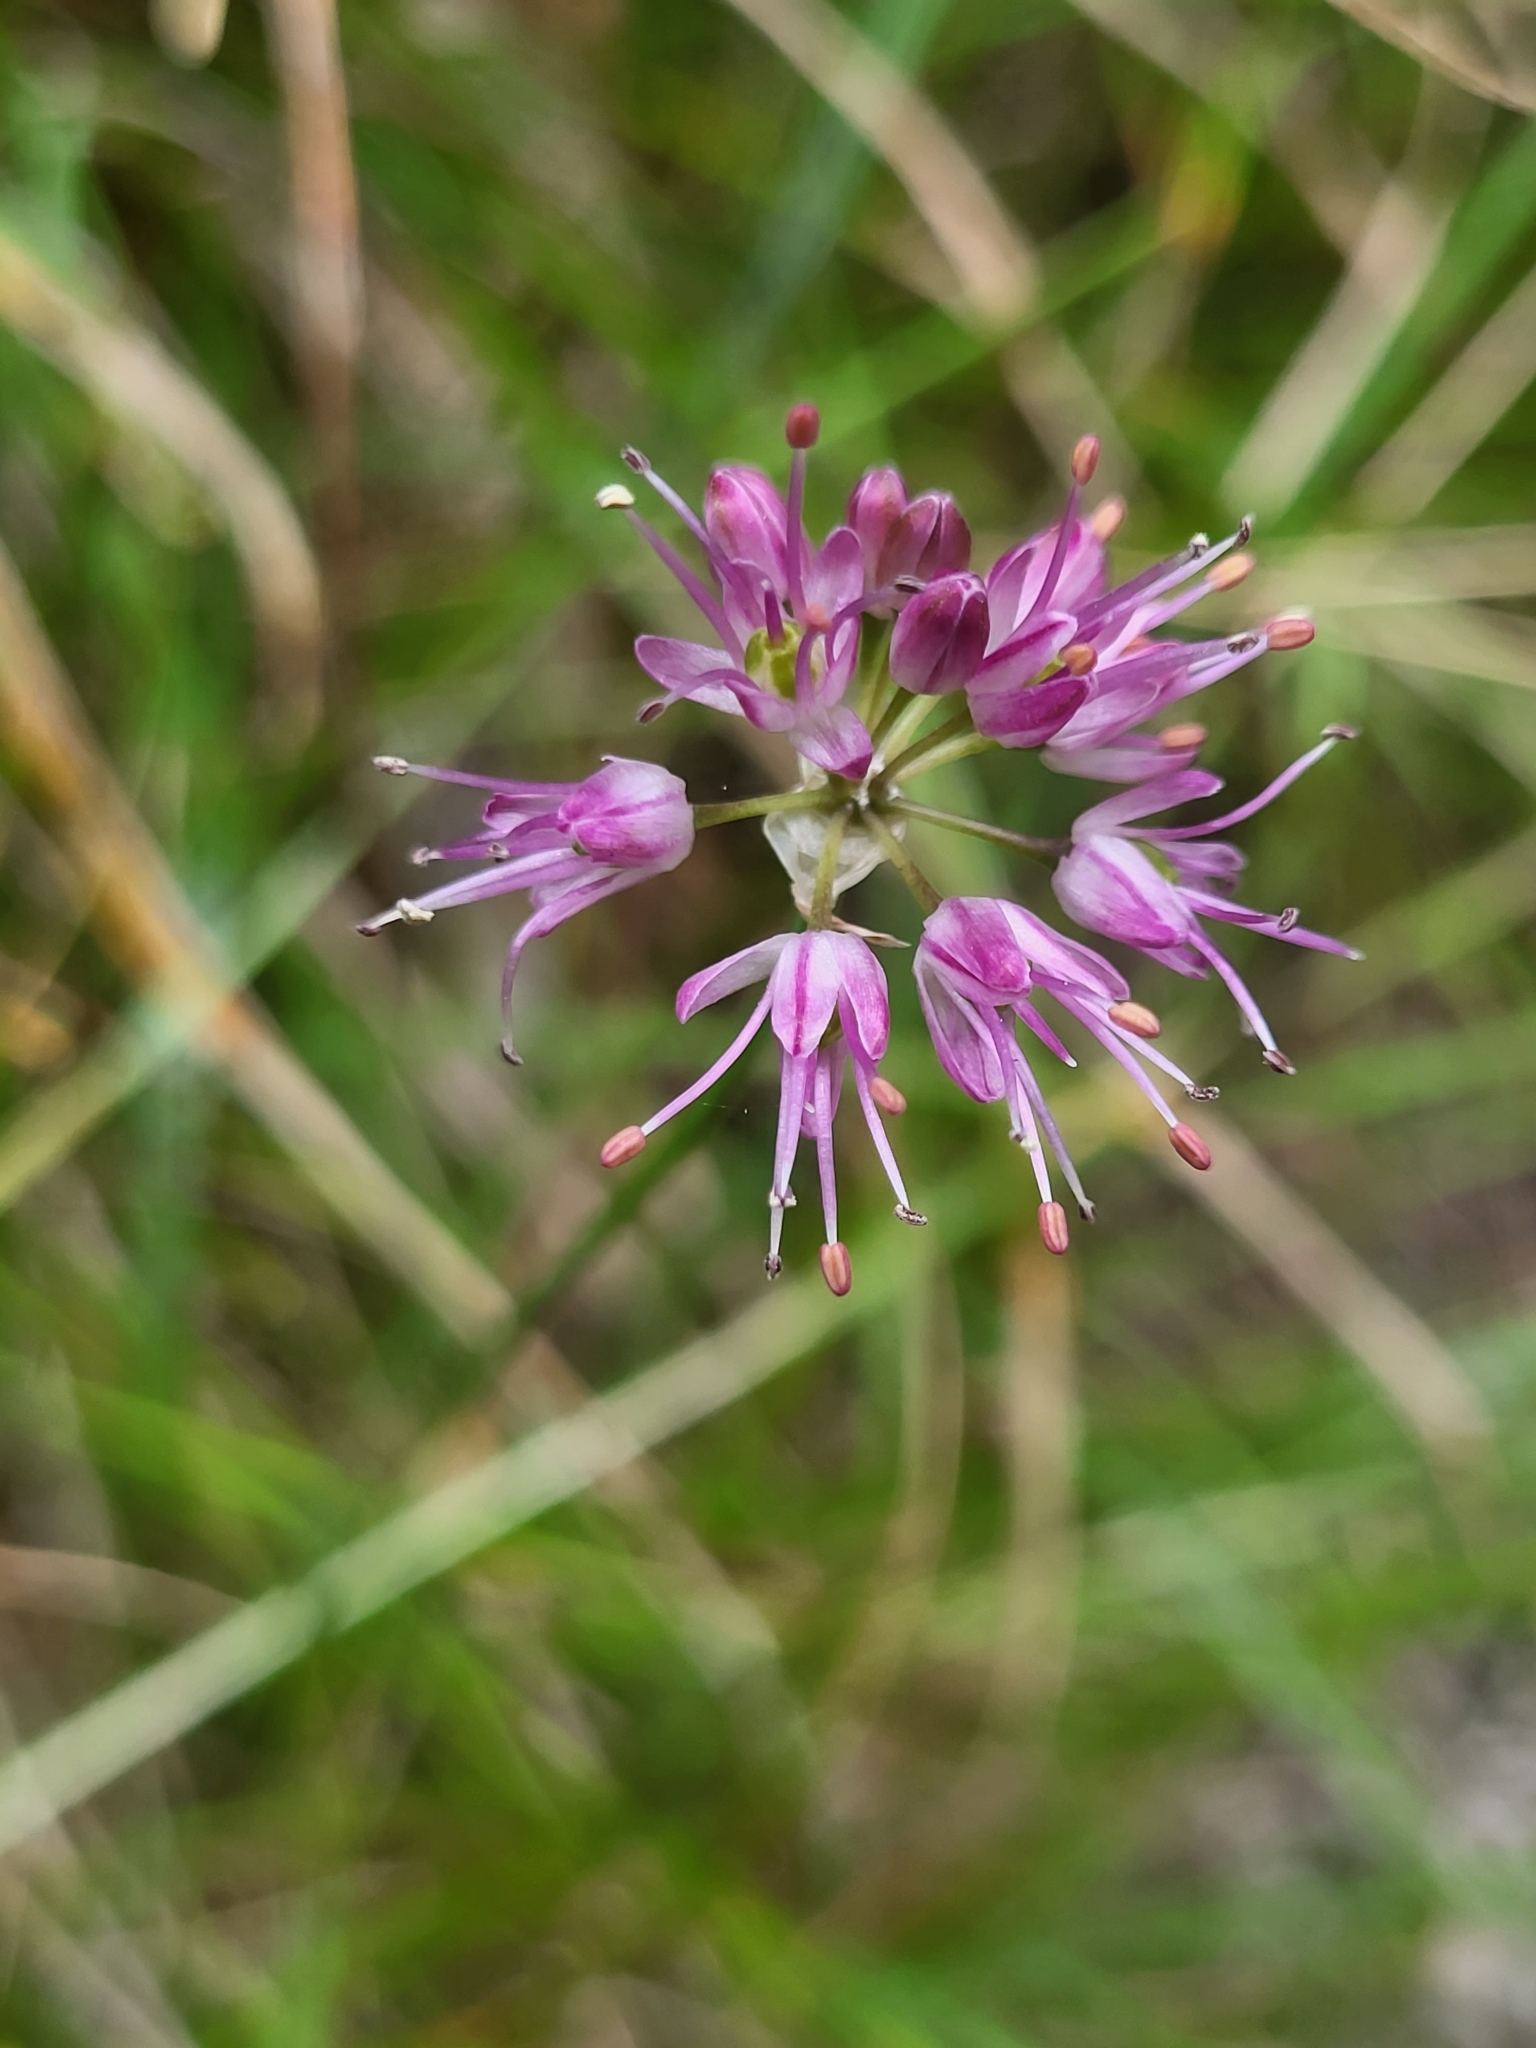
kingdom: Plantae
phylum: Tracheophyta
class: Liliopsida
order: Asparagales
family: Amaryllidaceae
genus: Allium
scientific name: Allium kermesinum
